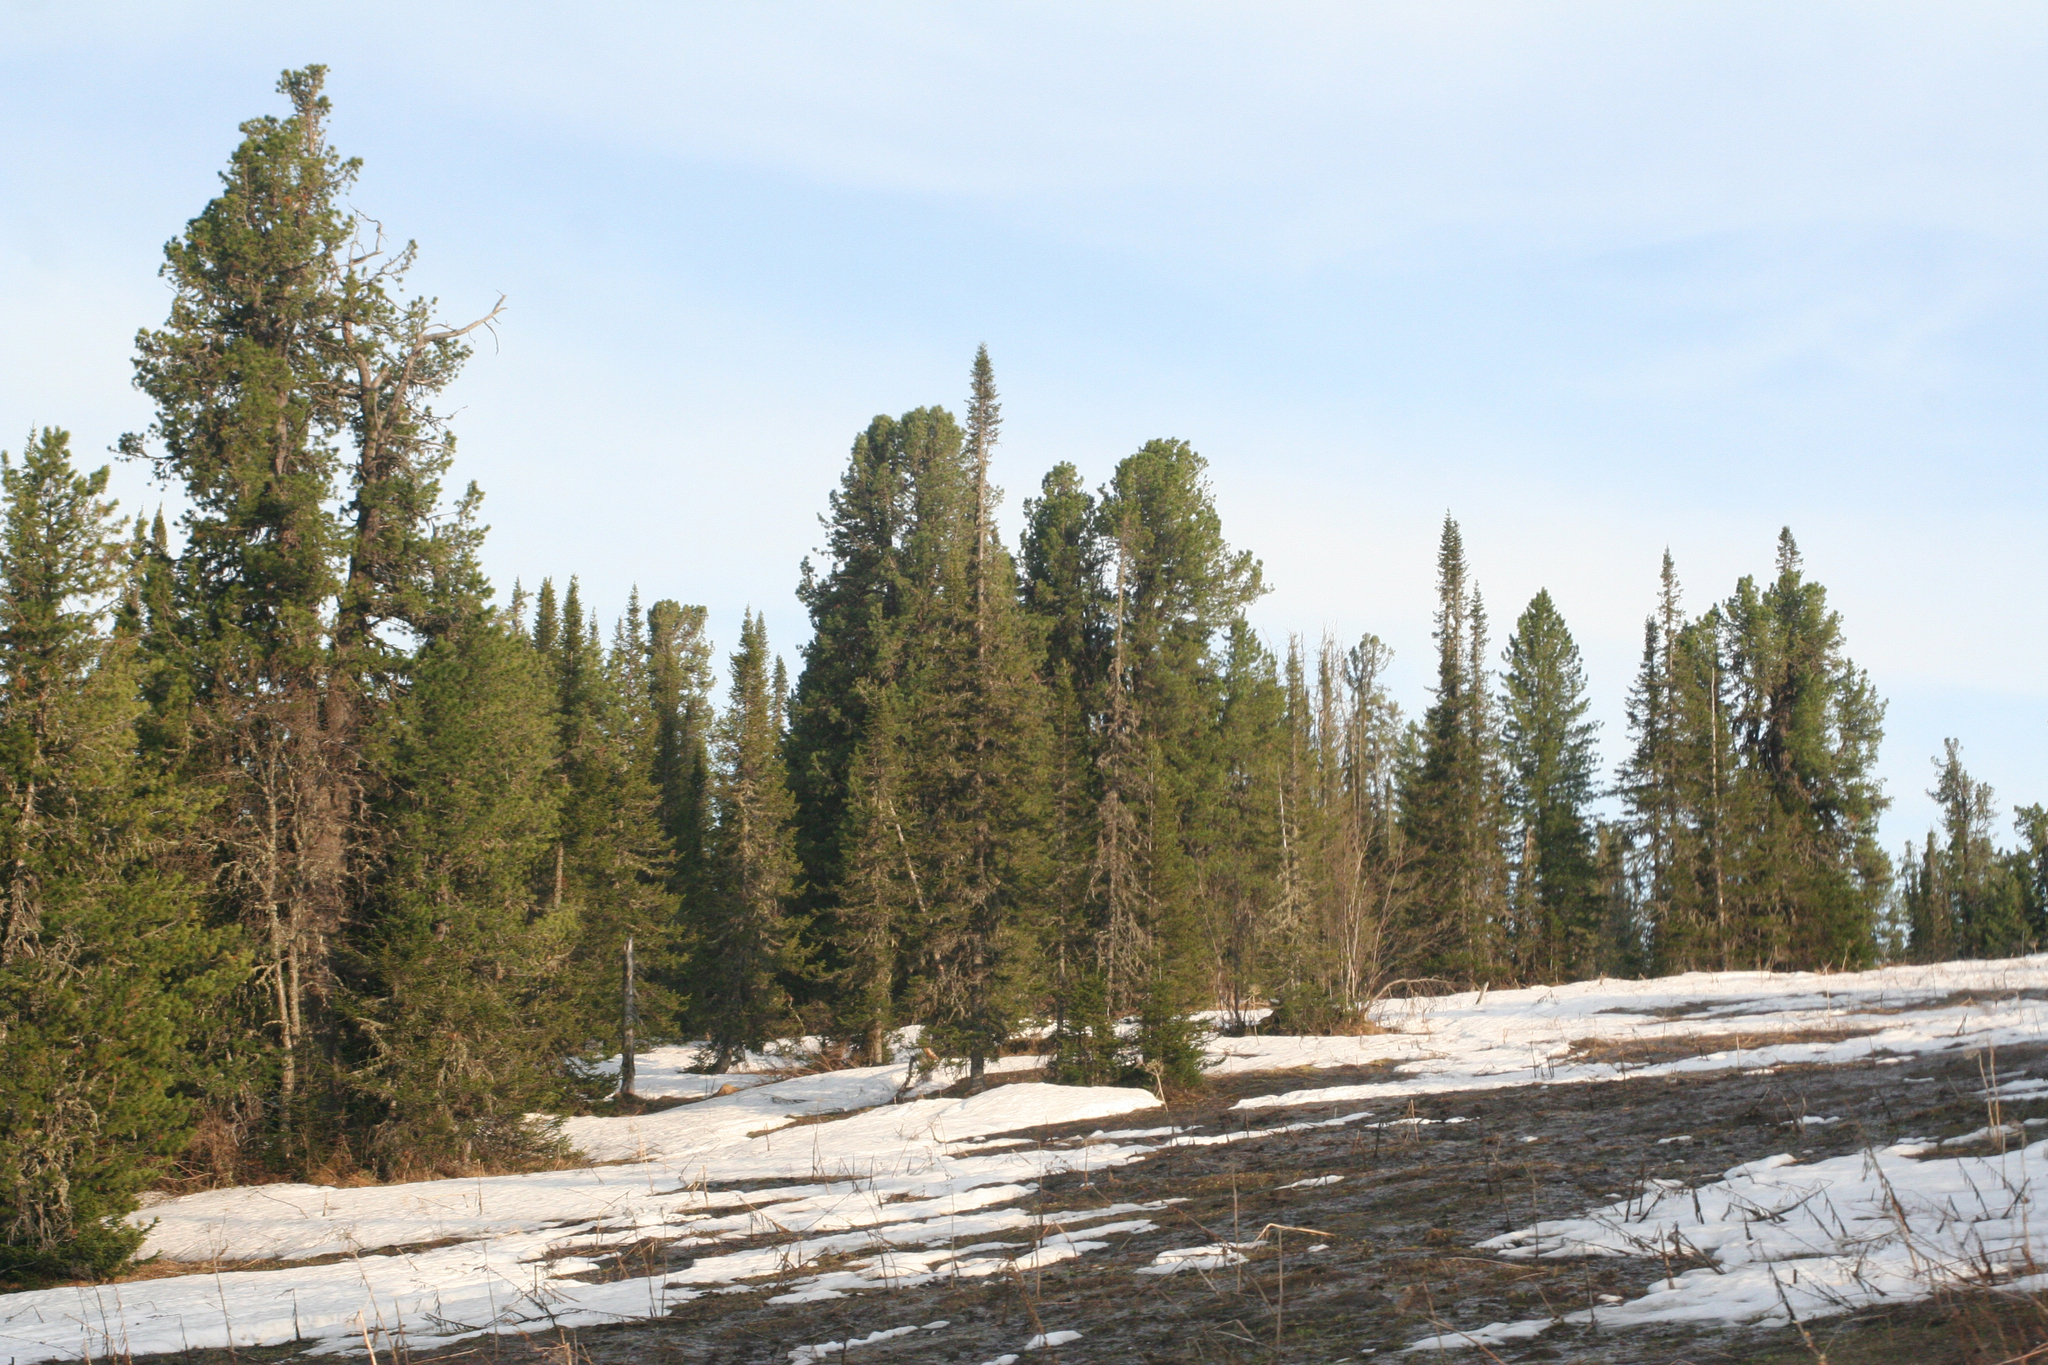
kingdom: Plantae
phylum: Tracheophyta
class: Pinopsida
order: Pinales
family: Pinaceae
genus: Pinus
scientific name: Pinus sibirica
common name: Siberian pine
